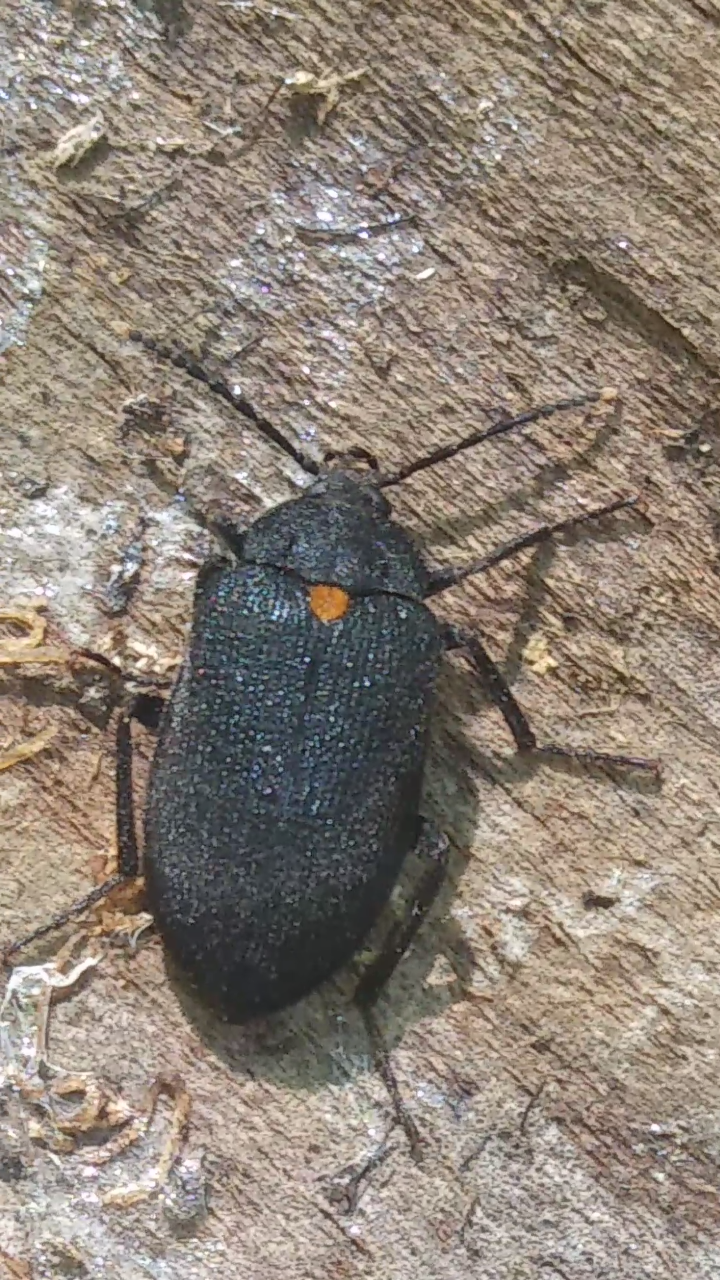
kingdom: Animalia
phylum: Arthropoda
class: Insecta
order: Coleoptera
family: Tetratomidae
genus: Penthe
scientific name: Penthe obliquata
